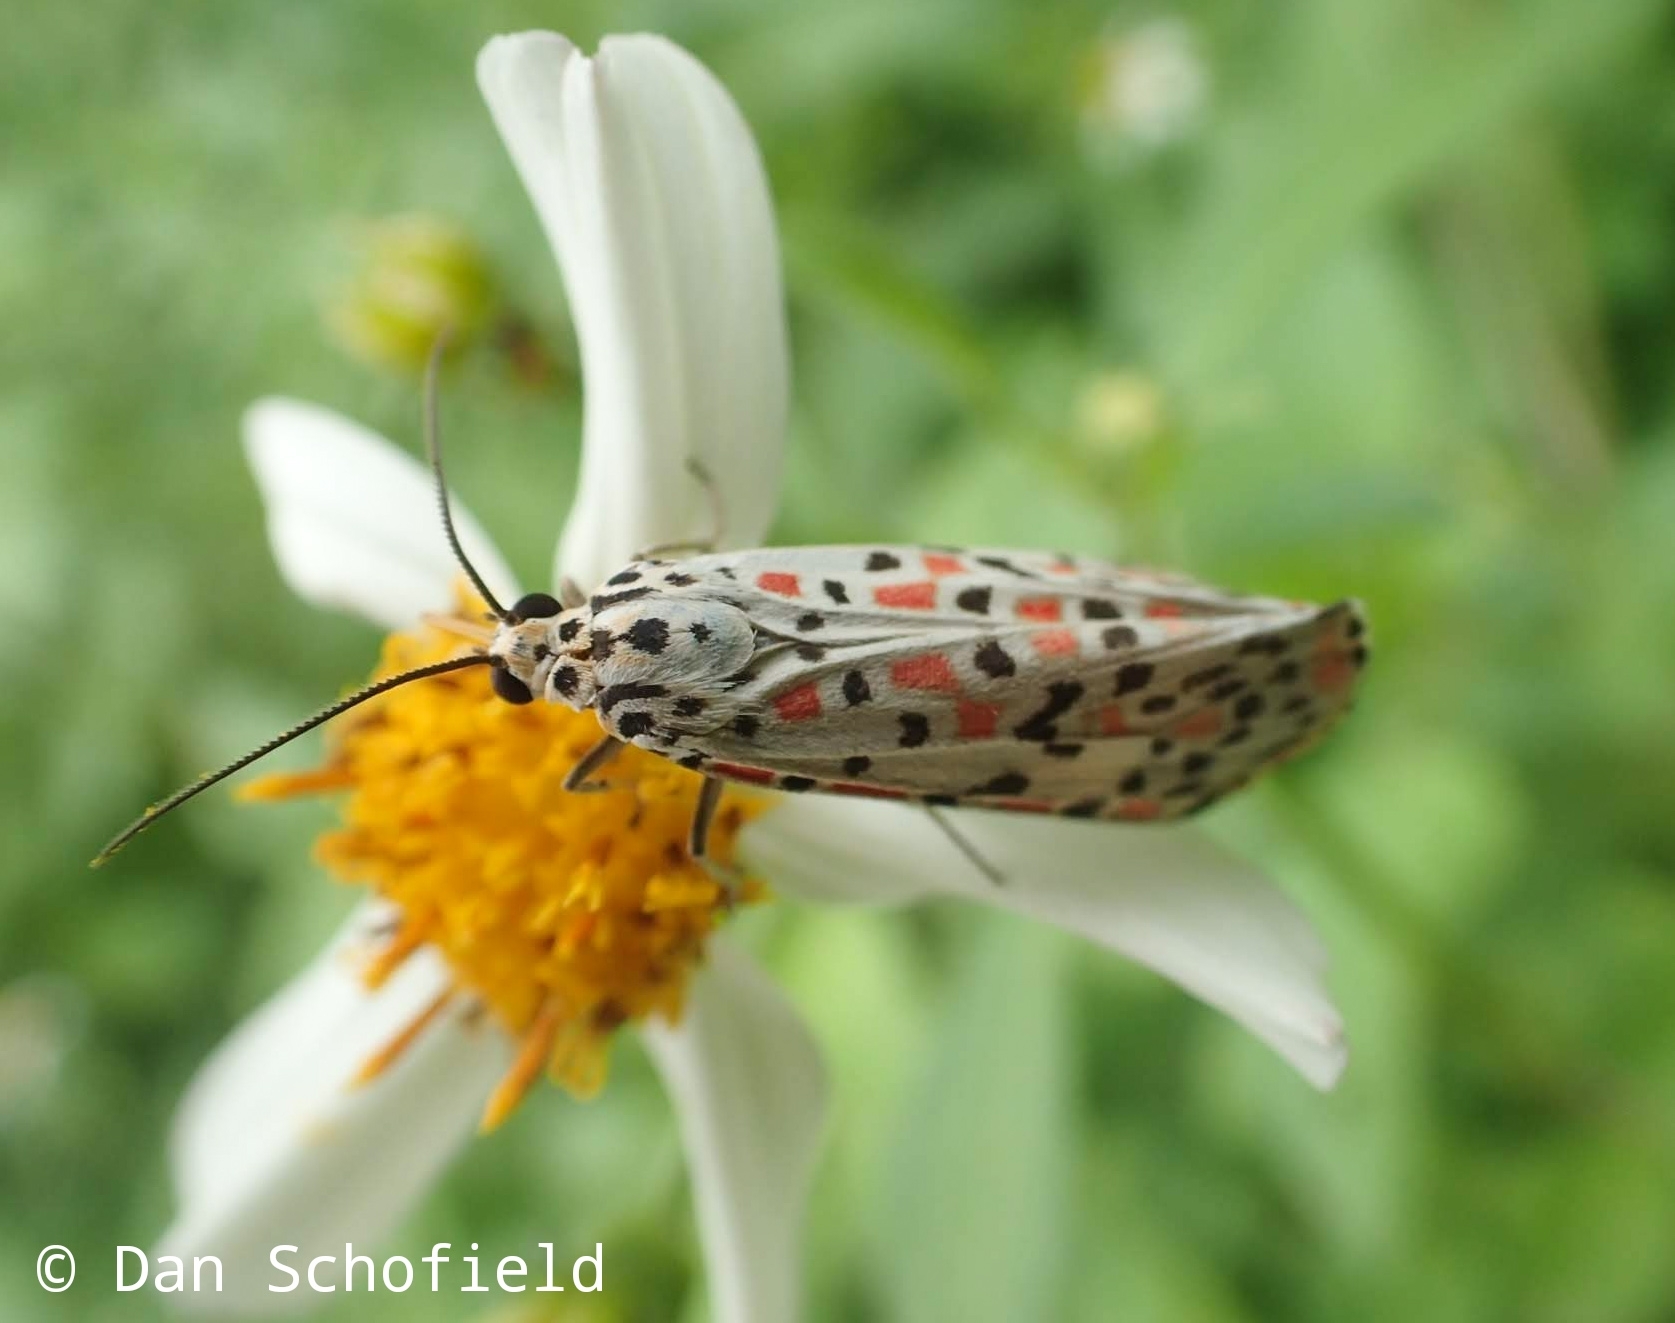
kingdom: Animalia
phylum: Arthropoda
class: Insecta
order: Lepidoptera
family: Erebidae
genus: Utetheisa
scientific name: Utetheisa pulchelloides
